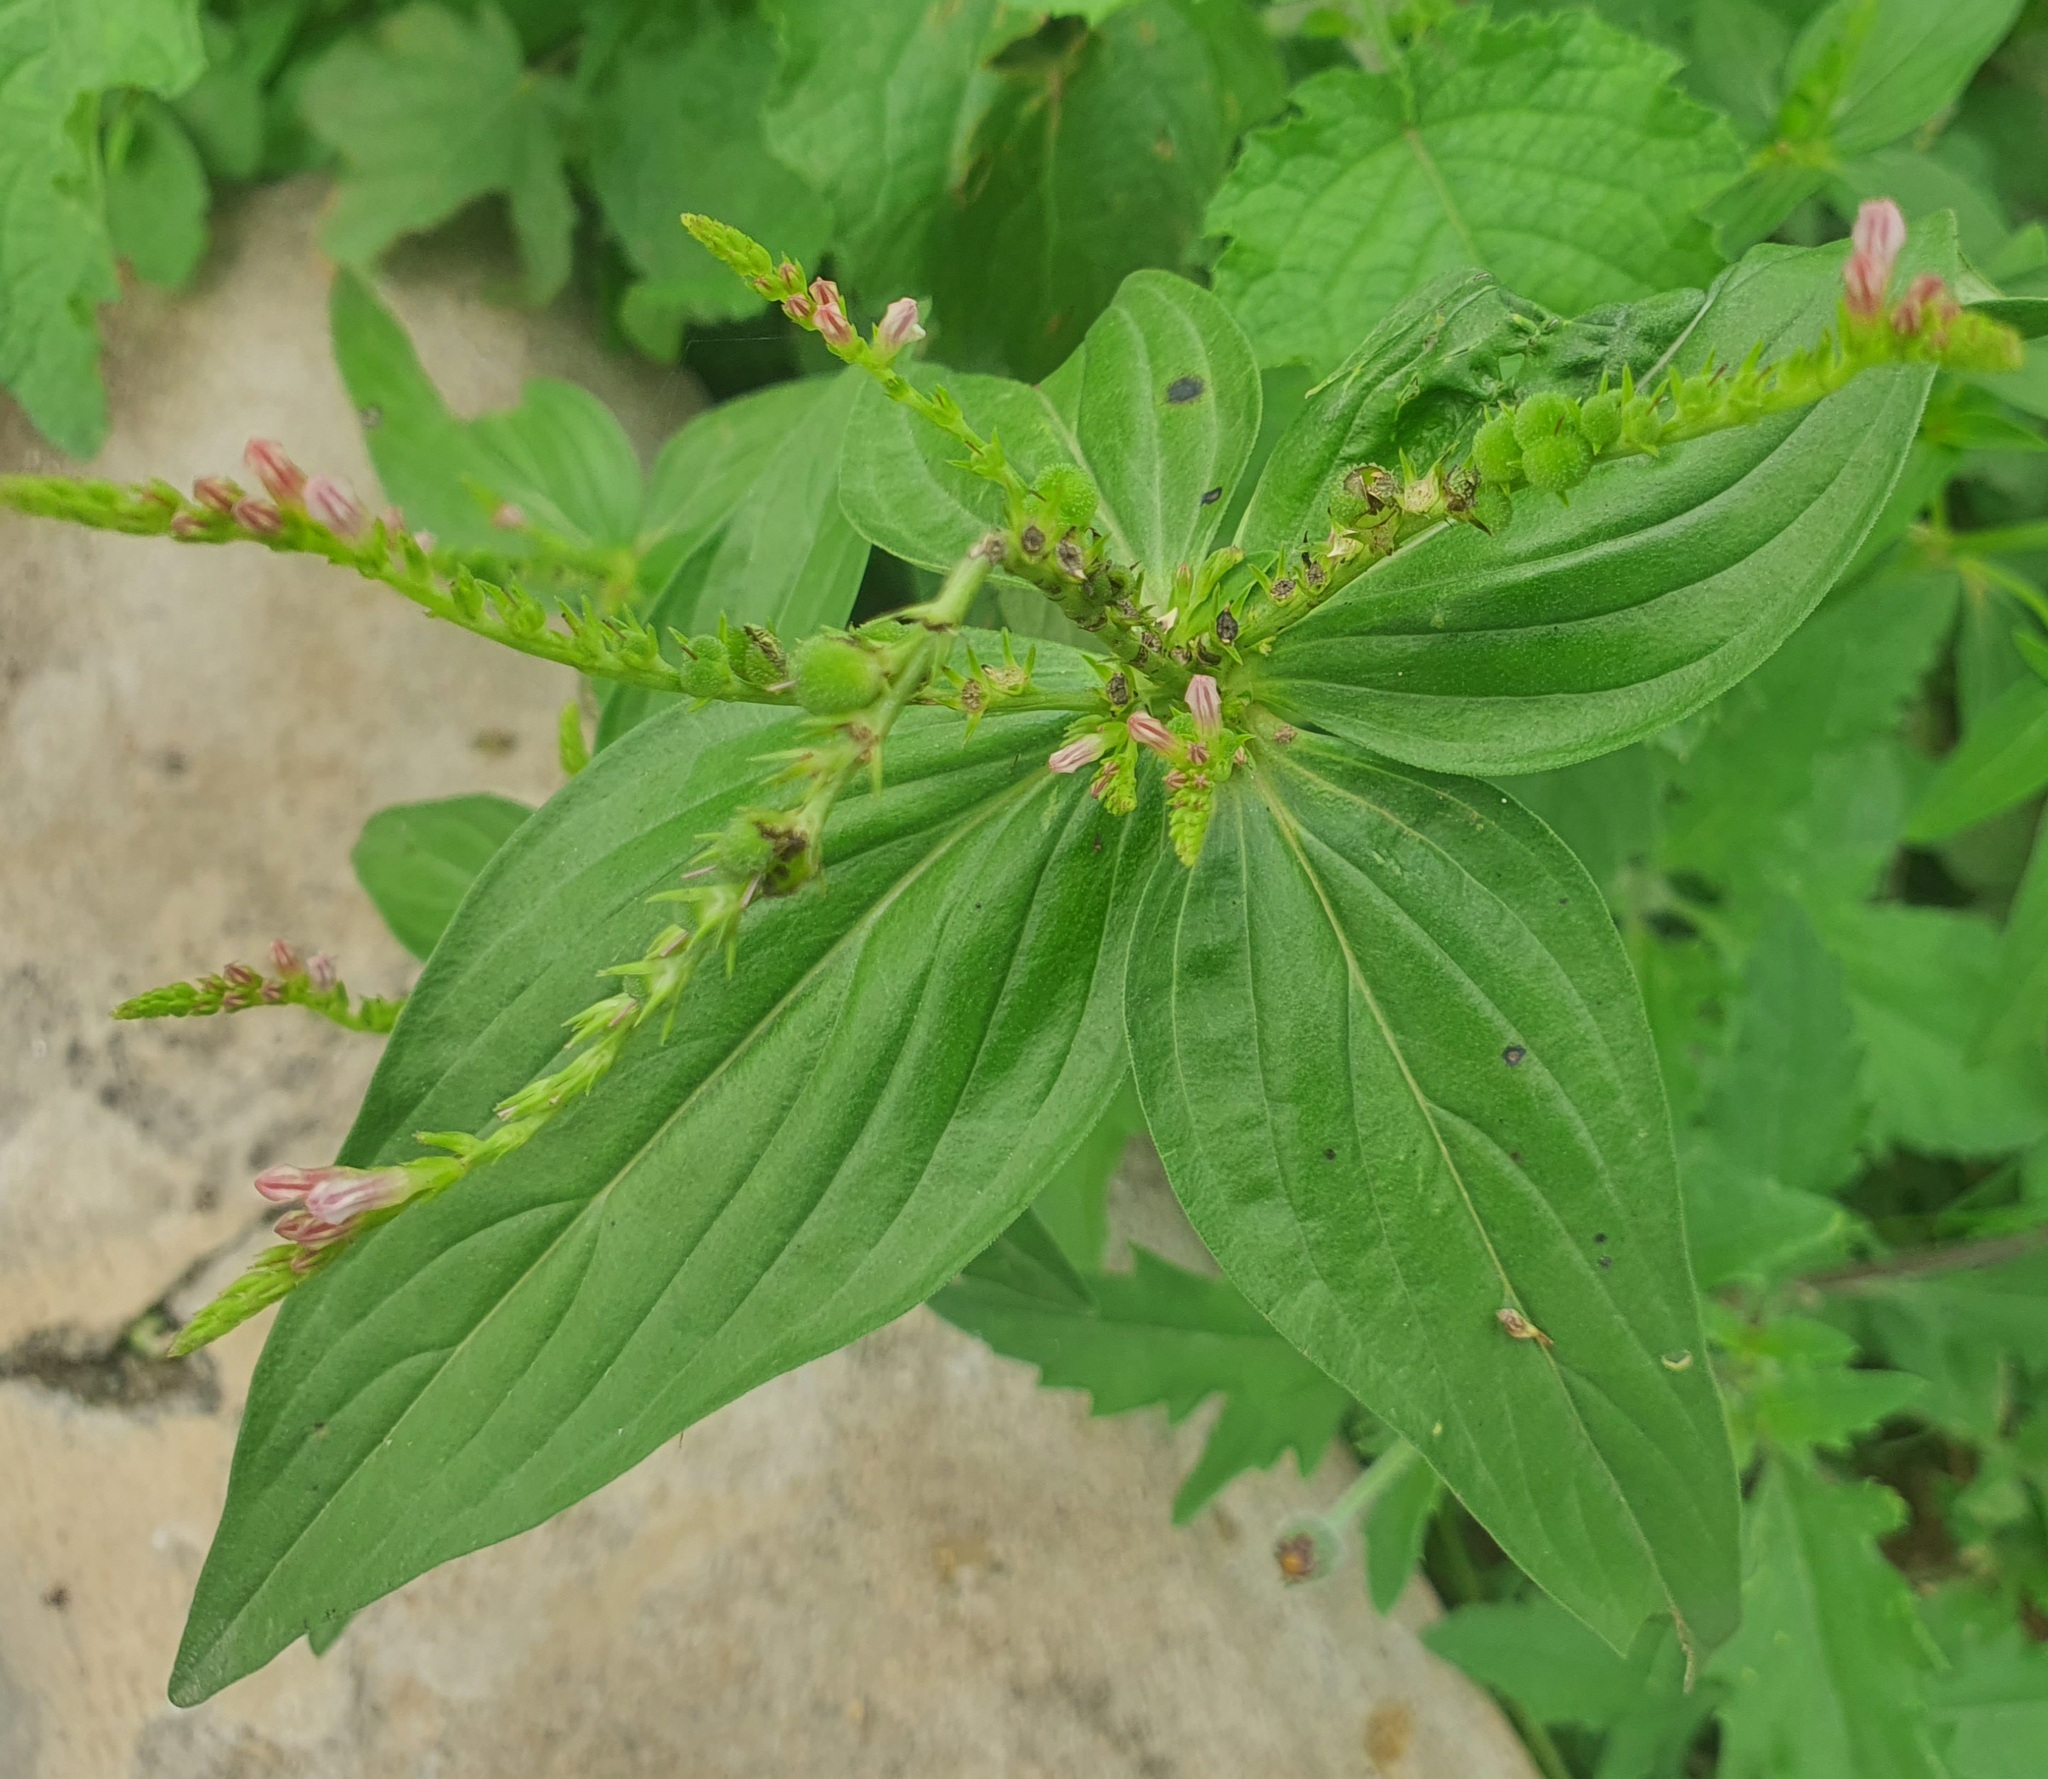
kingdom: Plantae
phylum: Tracheophyta
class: Magnoliopsida
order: Gentianales
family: Loganiaceae
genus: Spigelia
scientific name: Spigelia anthelmia
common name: West indian-pink
